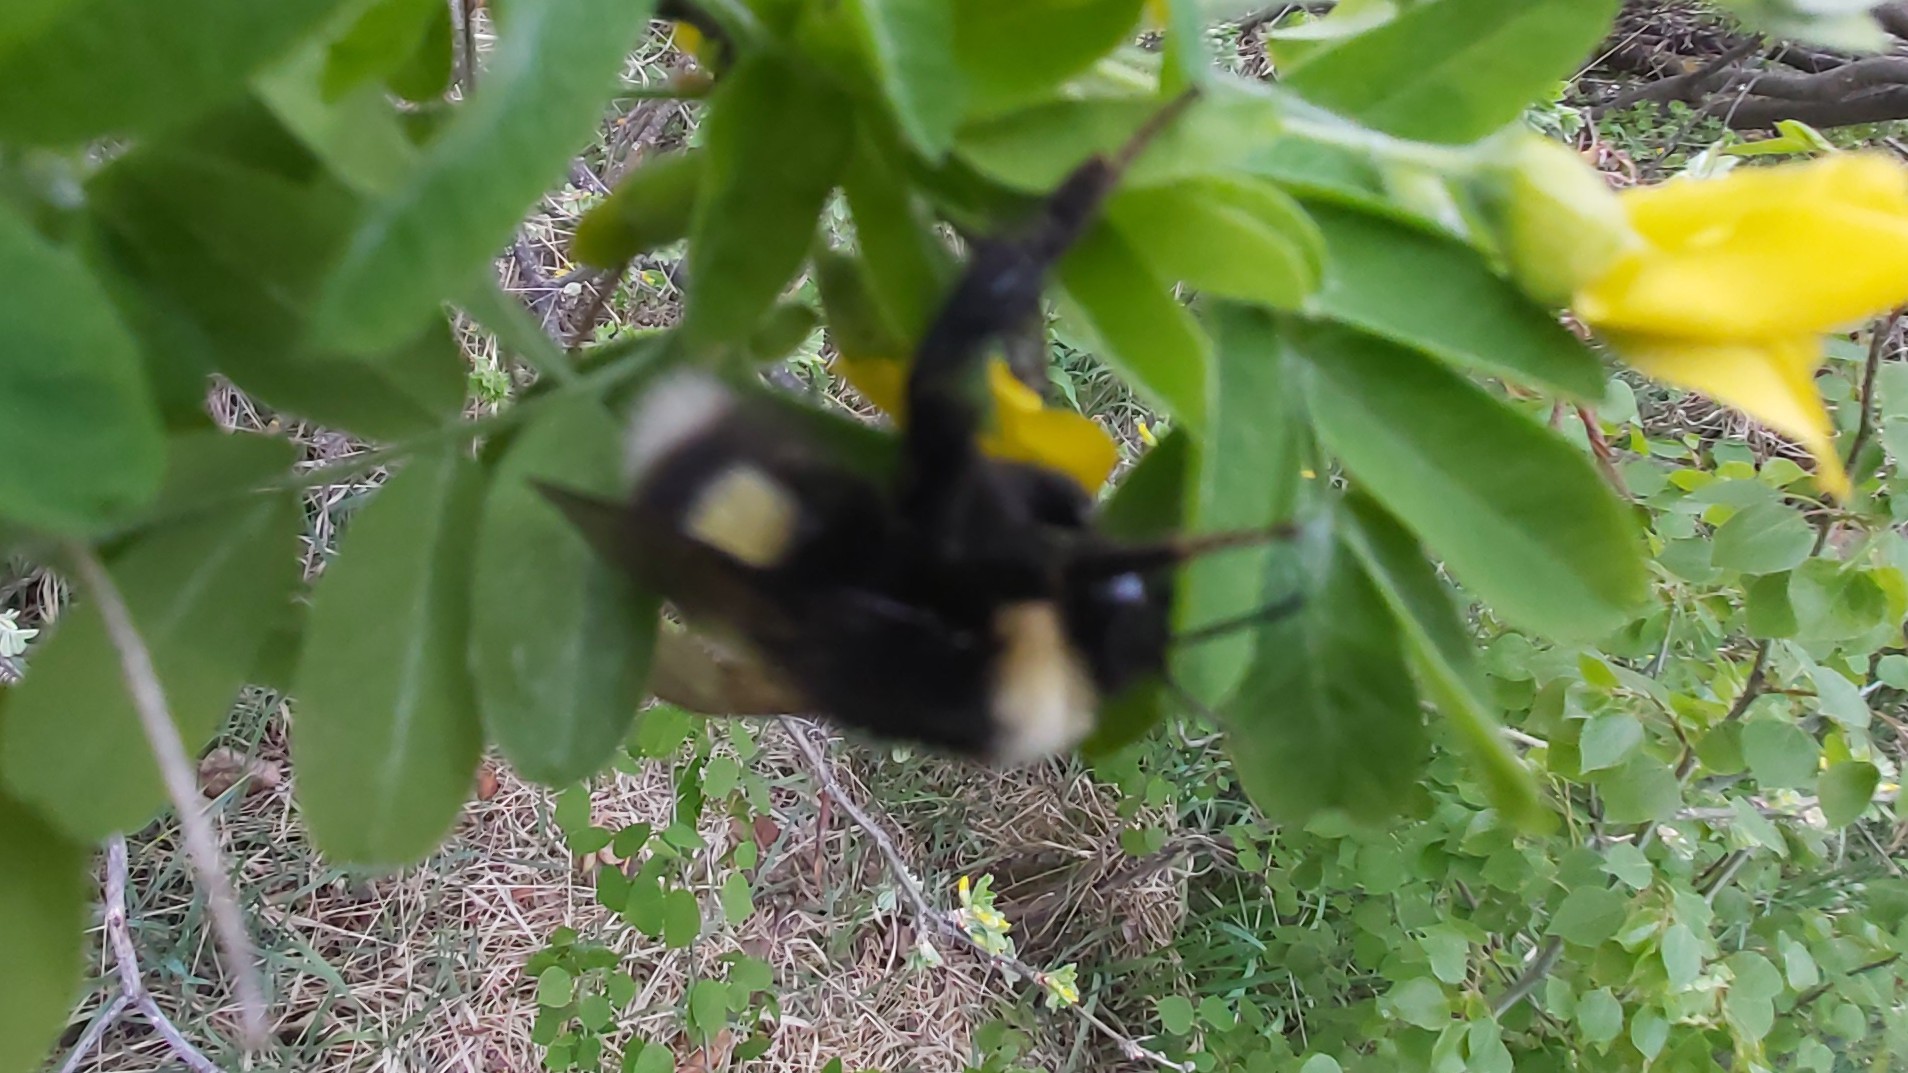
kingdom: Animalia
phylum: Arthropoda
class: Insecta
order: Hymenoptera
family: Apidae
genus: Bombus
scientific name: Bombus cryptarum
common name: Cryptic bumblebee
